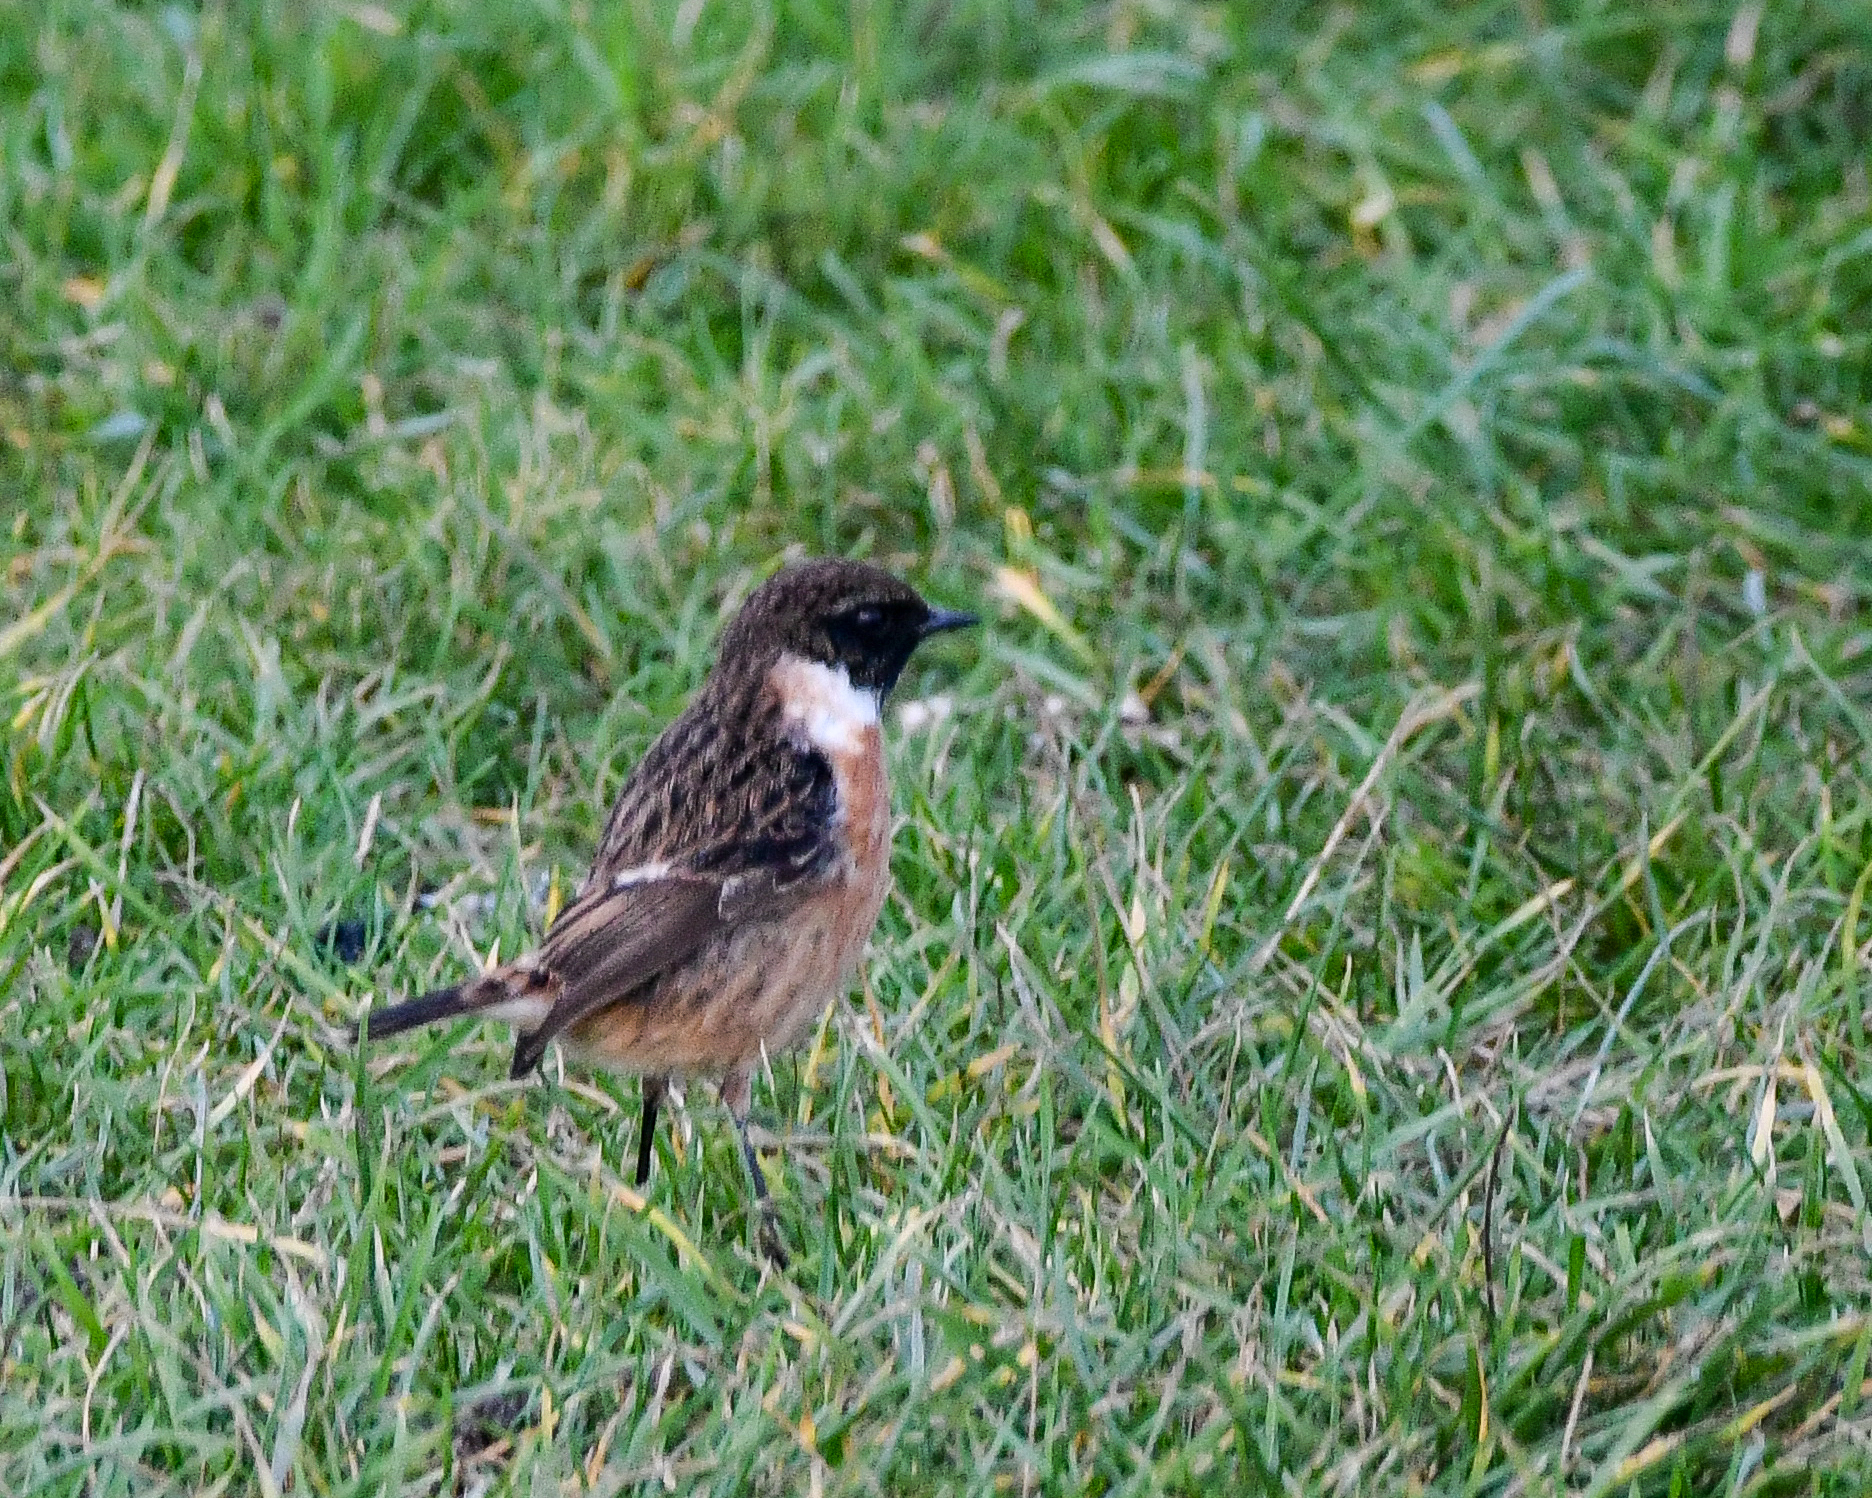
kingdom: Animalia
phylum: Chordata
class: Aves
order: Passeriformes
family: Muscicapidae
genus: Saxicola
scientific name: Saxicola rubicola
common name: European stonechat
